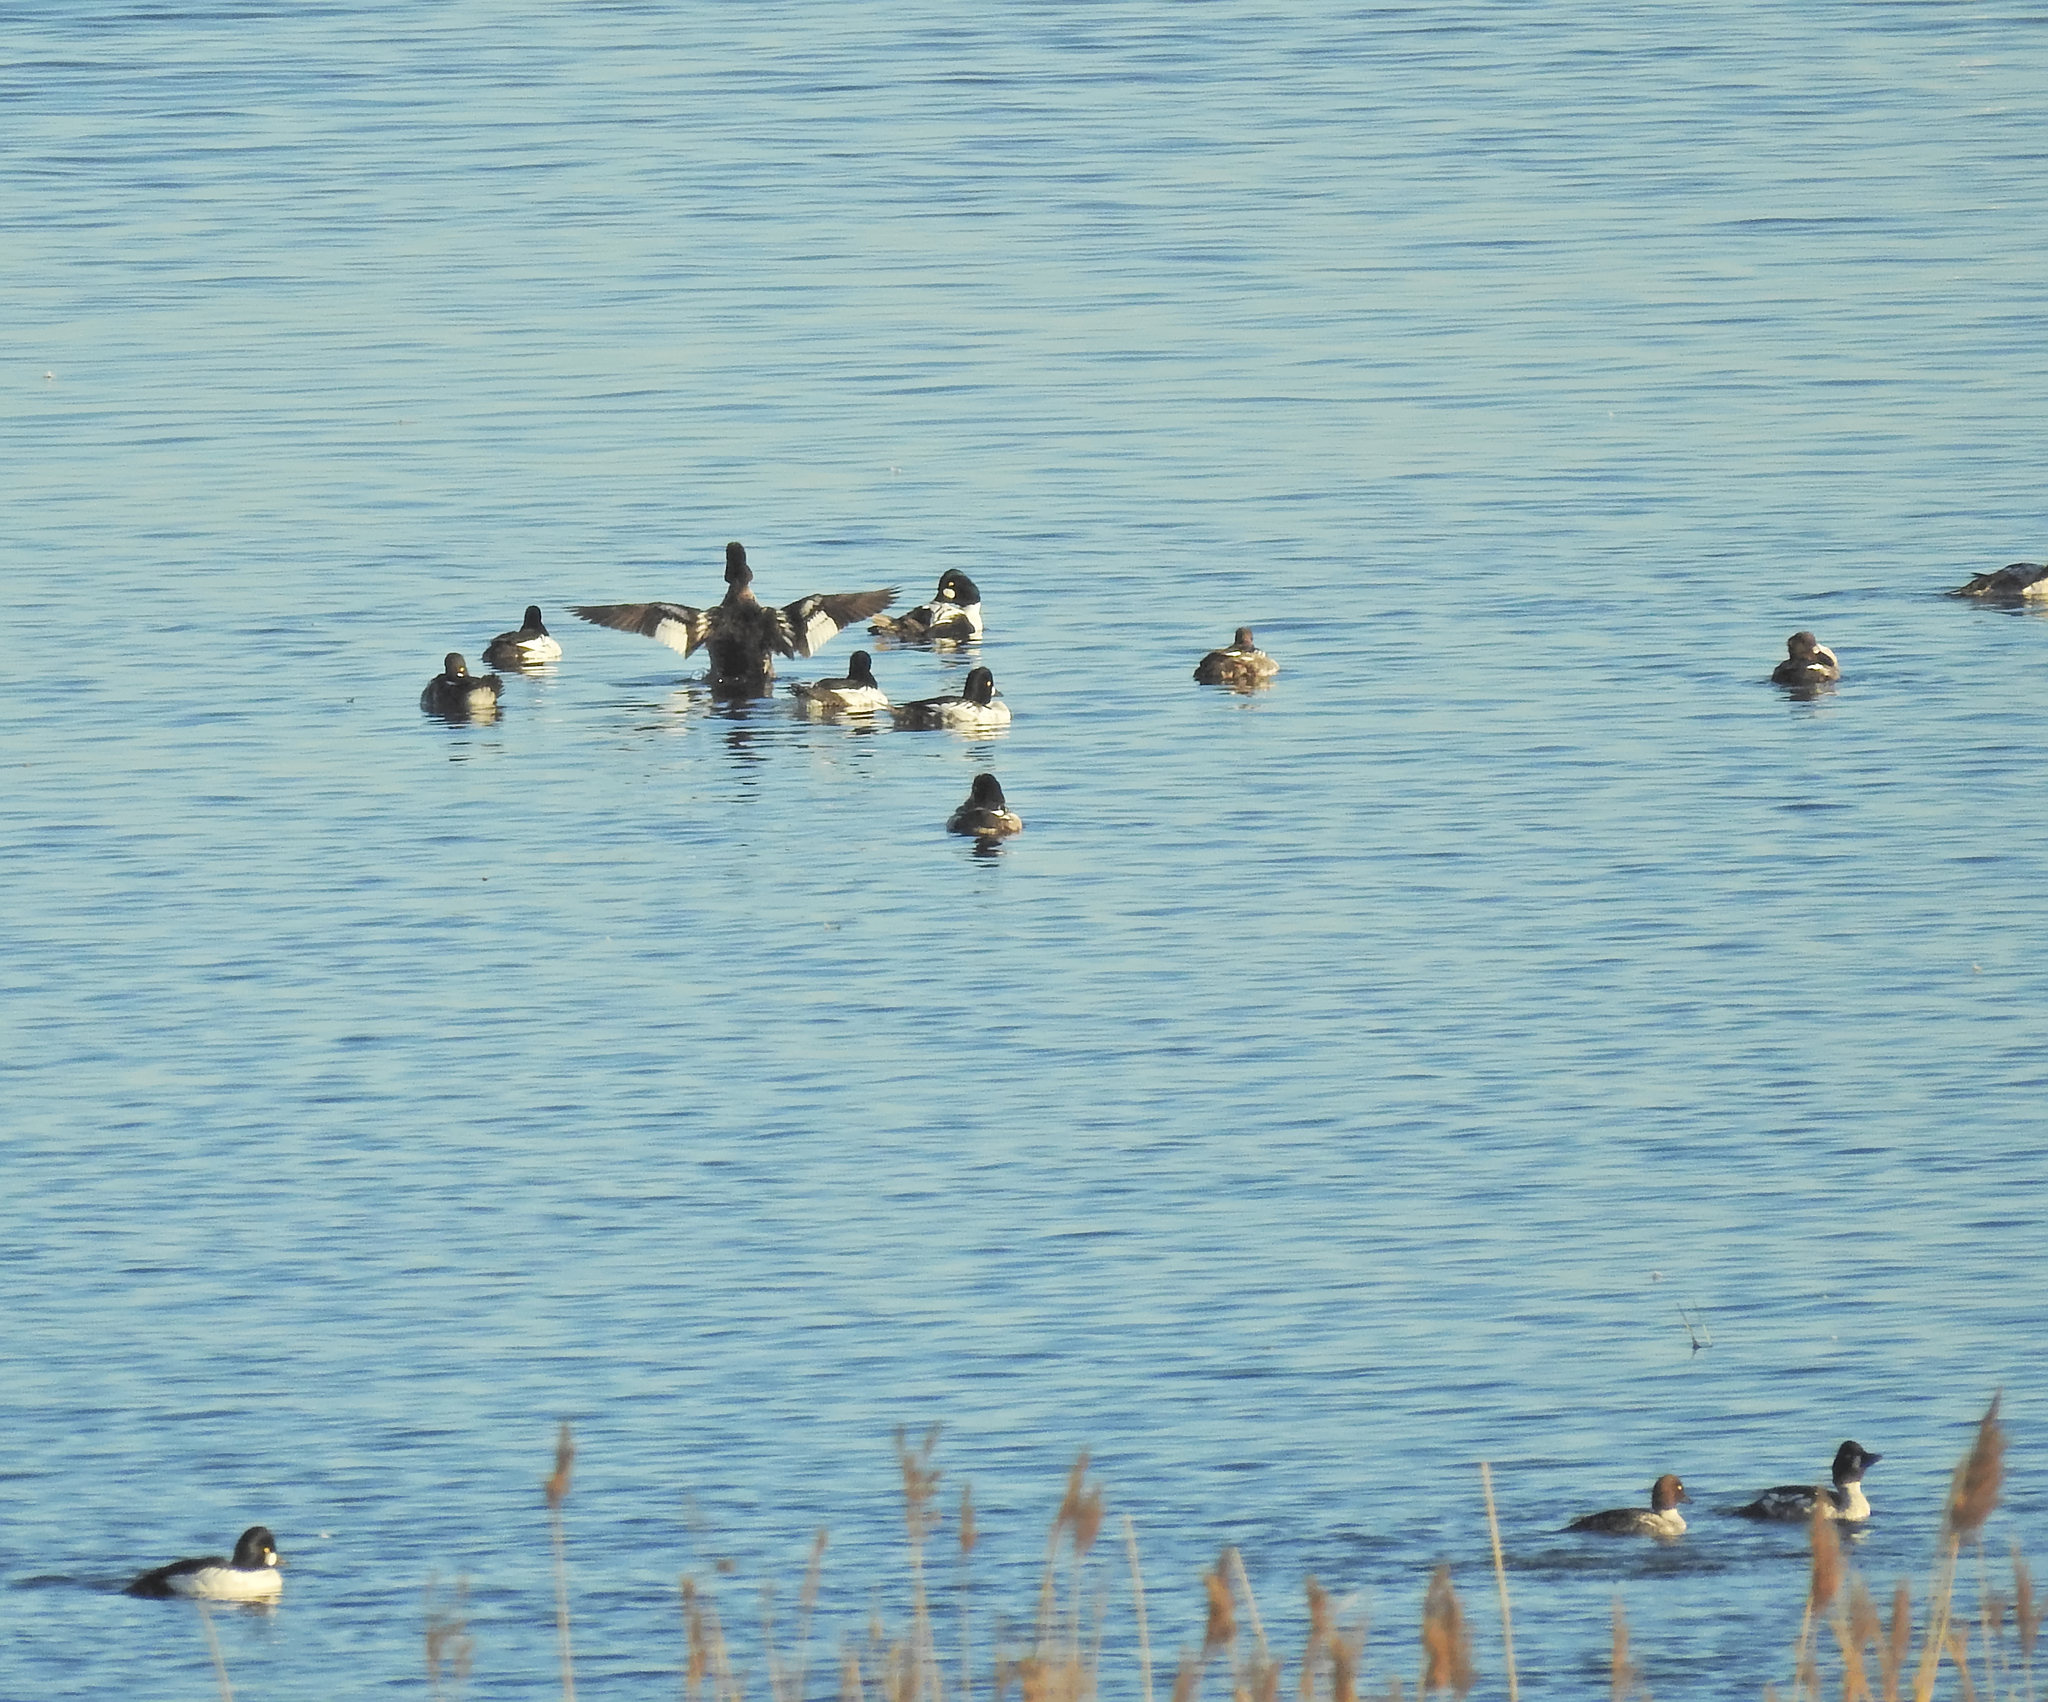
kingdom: Animalia
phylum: Chordata
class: Aves
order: Anseriformes
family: Anatidae
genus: Bucephala
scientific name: Bucephala clangula
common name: Common goldeneye
